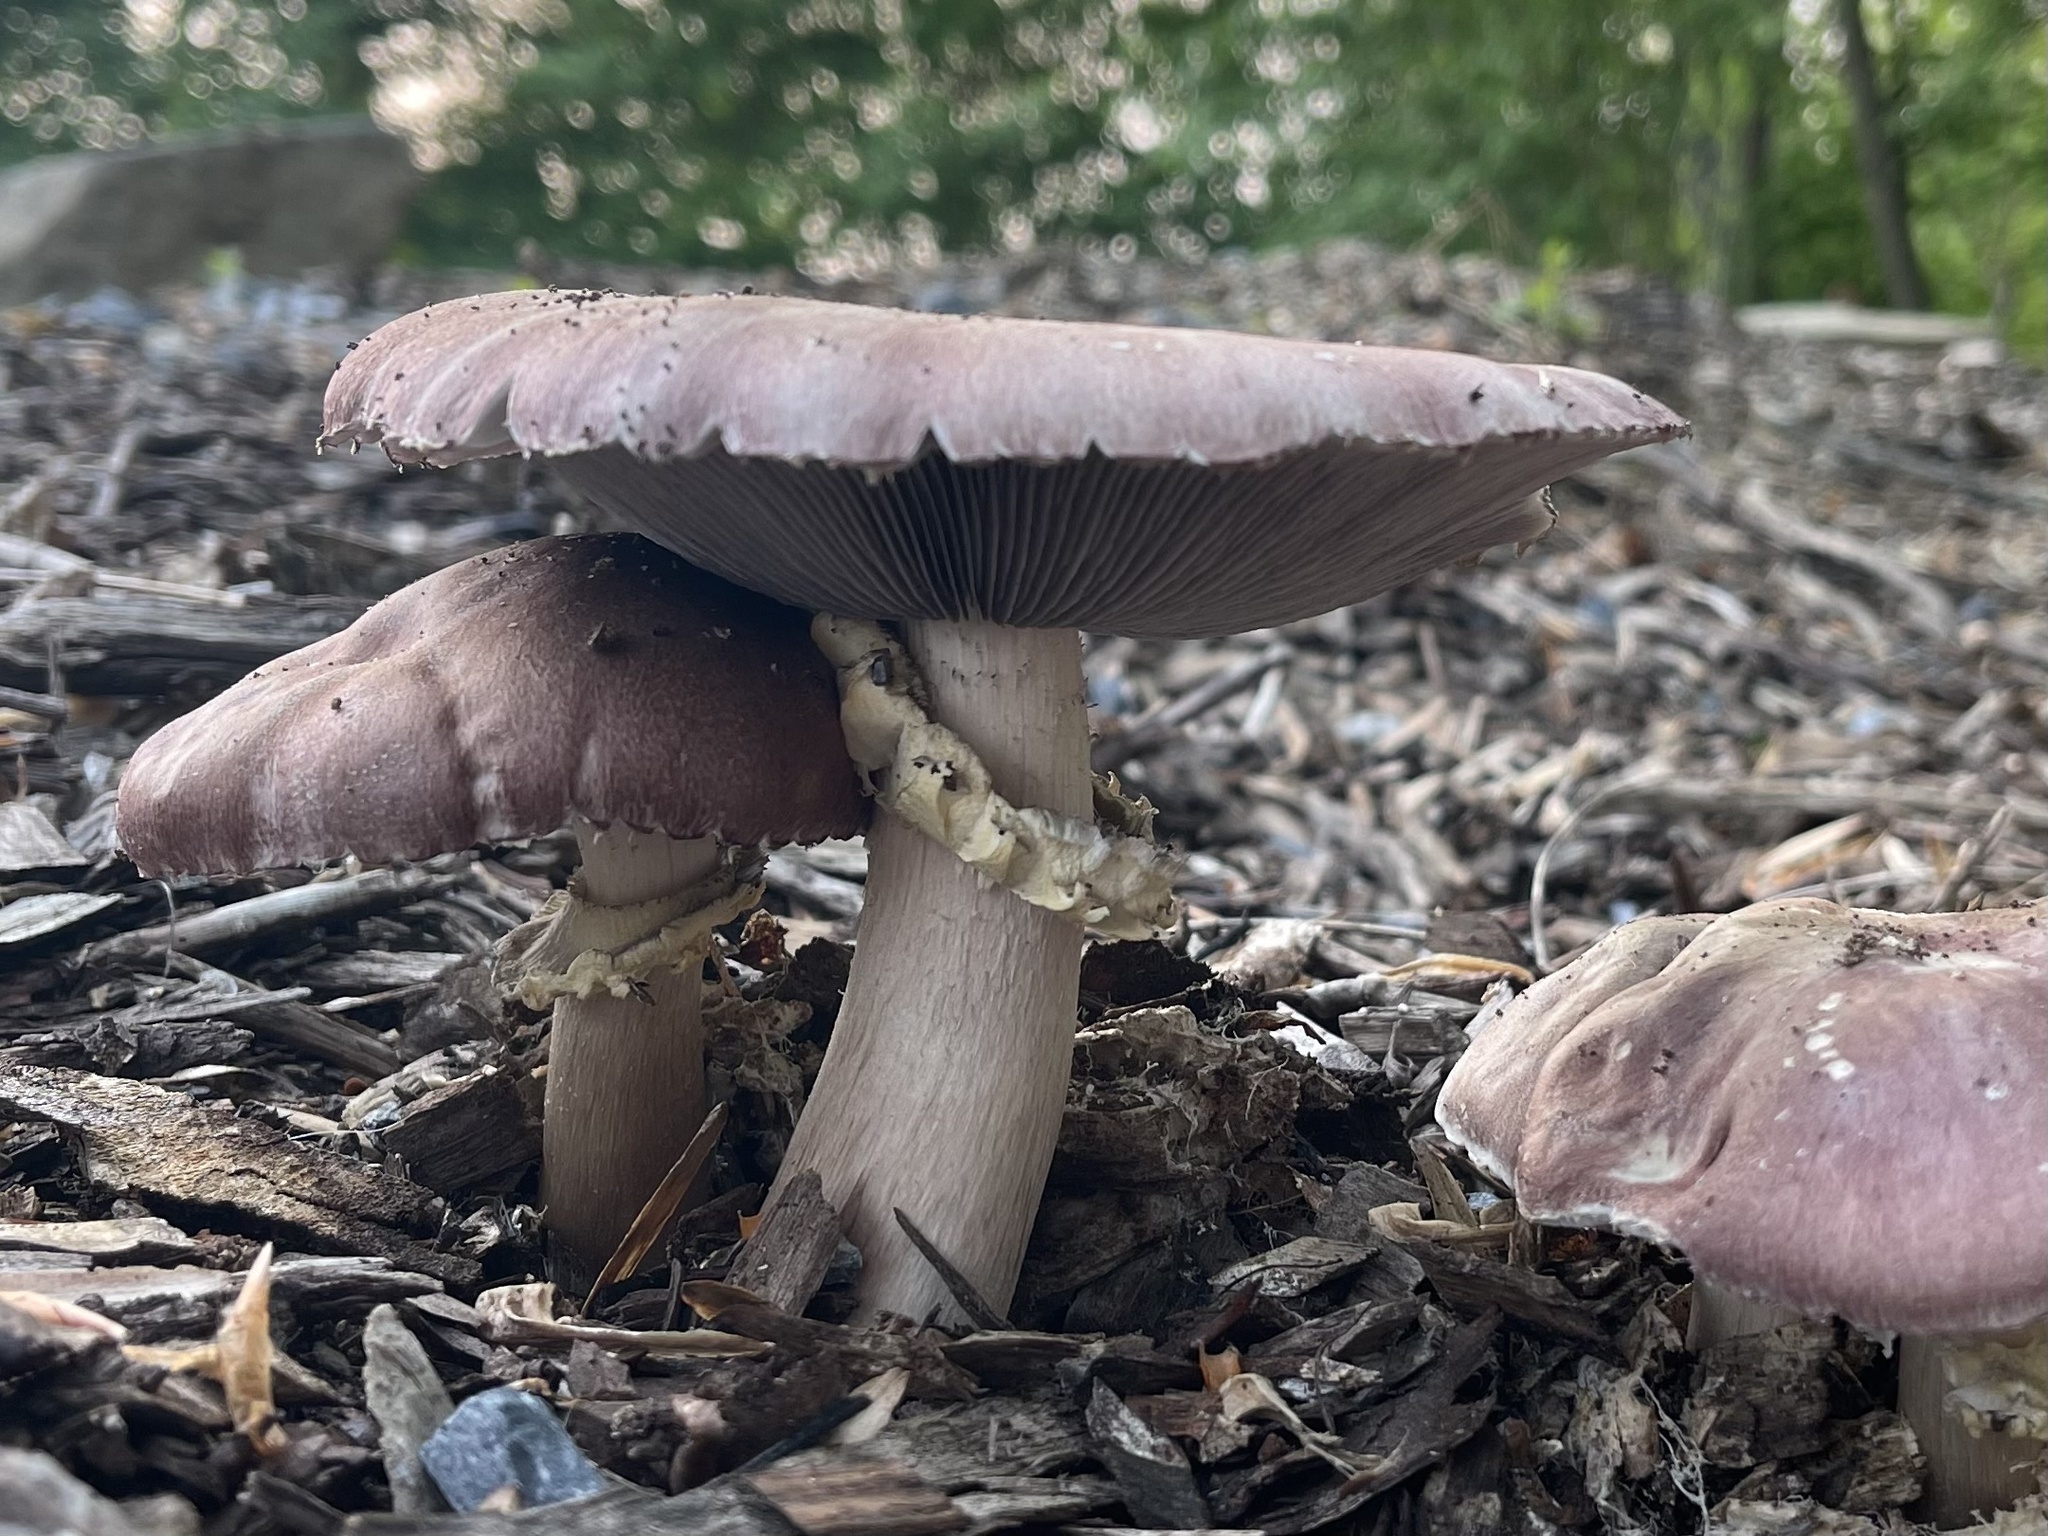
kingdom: Fungi
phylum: Basidiomycota
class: Agaricomycetes
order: Agaricales
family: Strophariaceae
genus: Stropharia
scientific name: Stropharia rugosoannulata
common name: Wine roundhead
